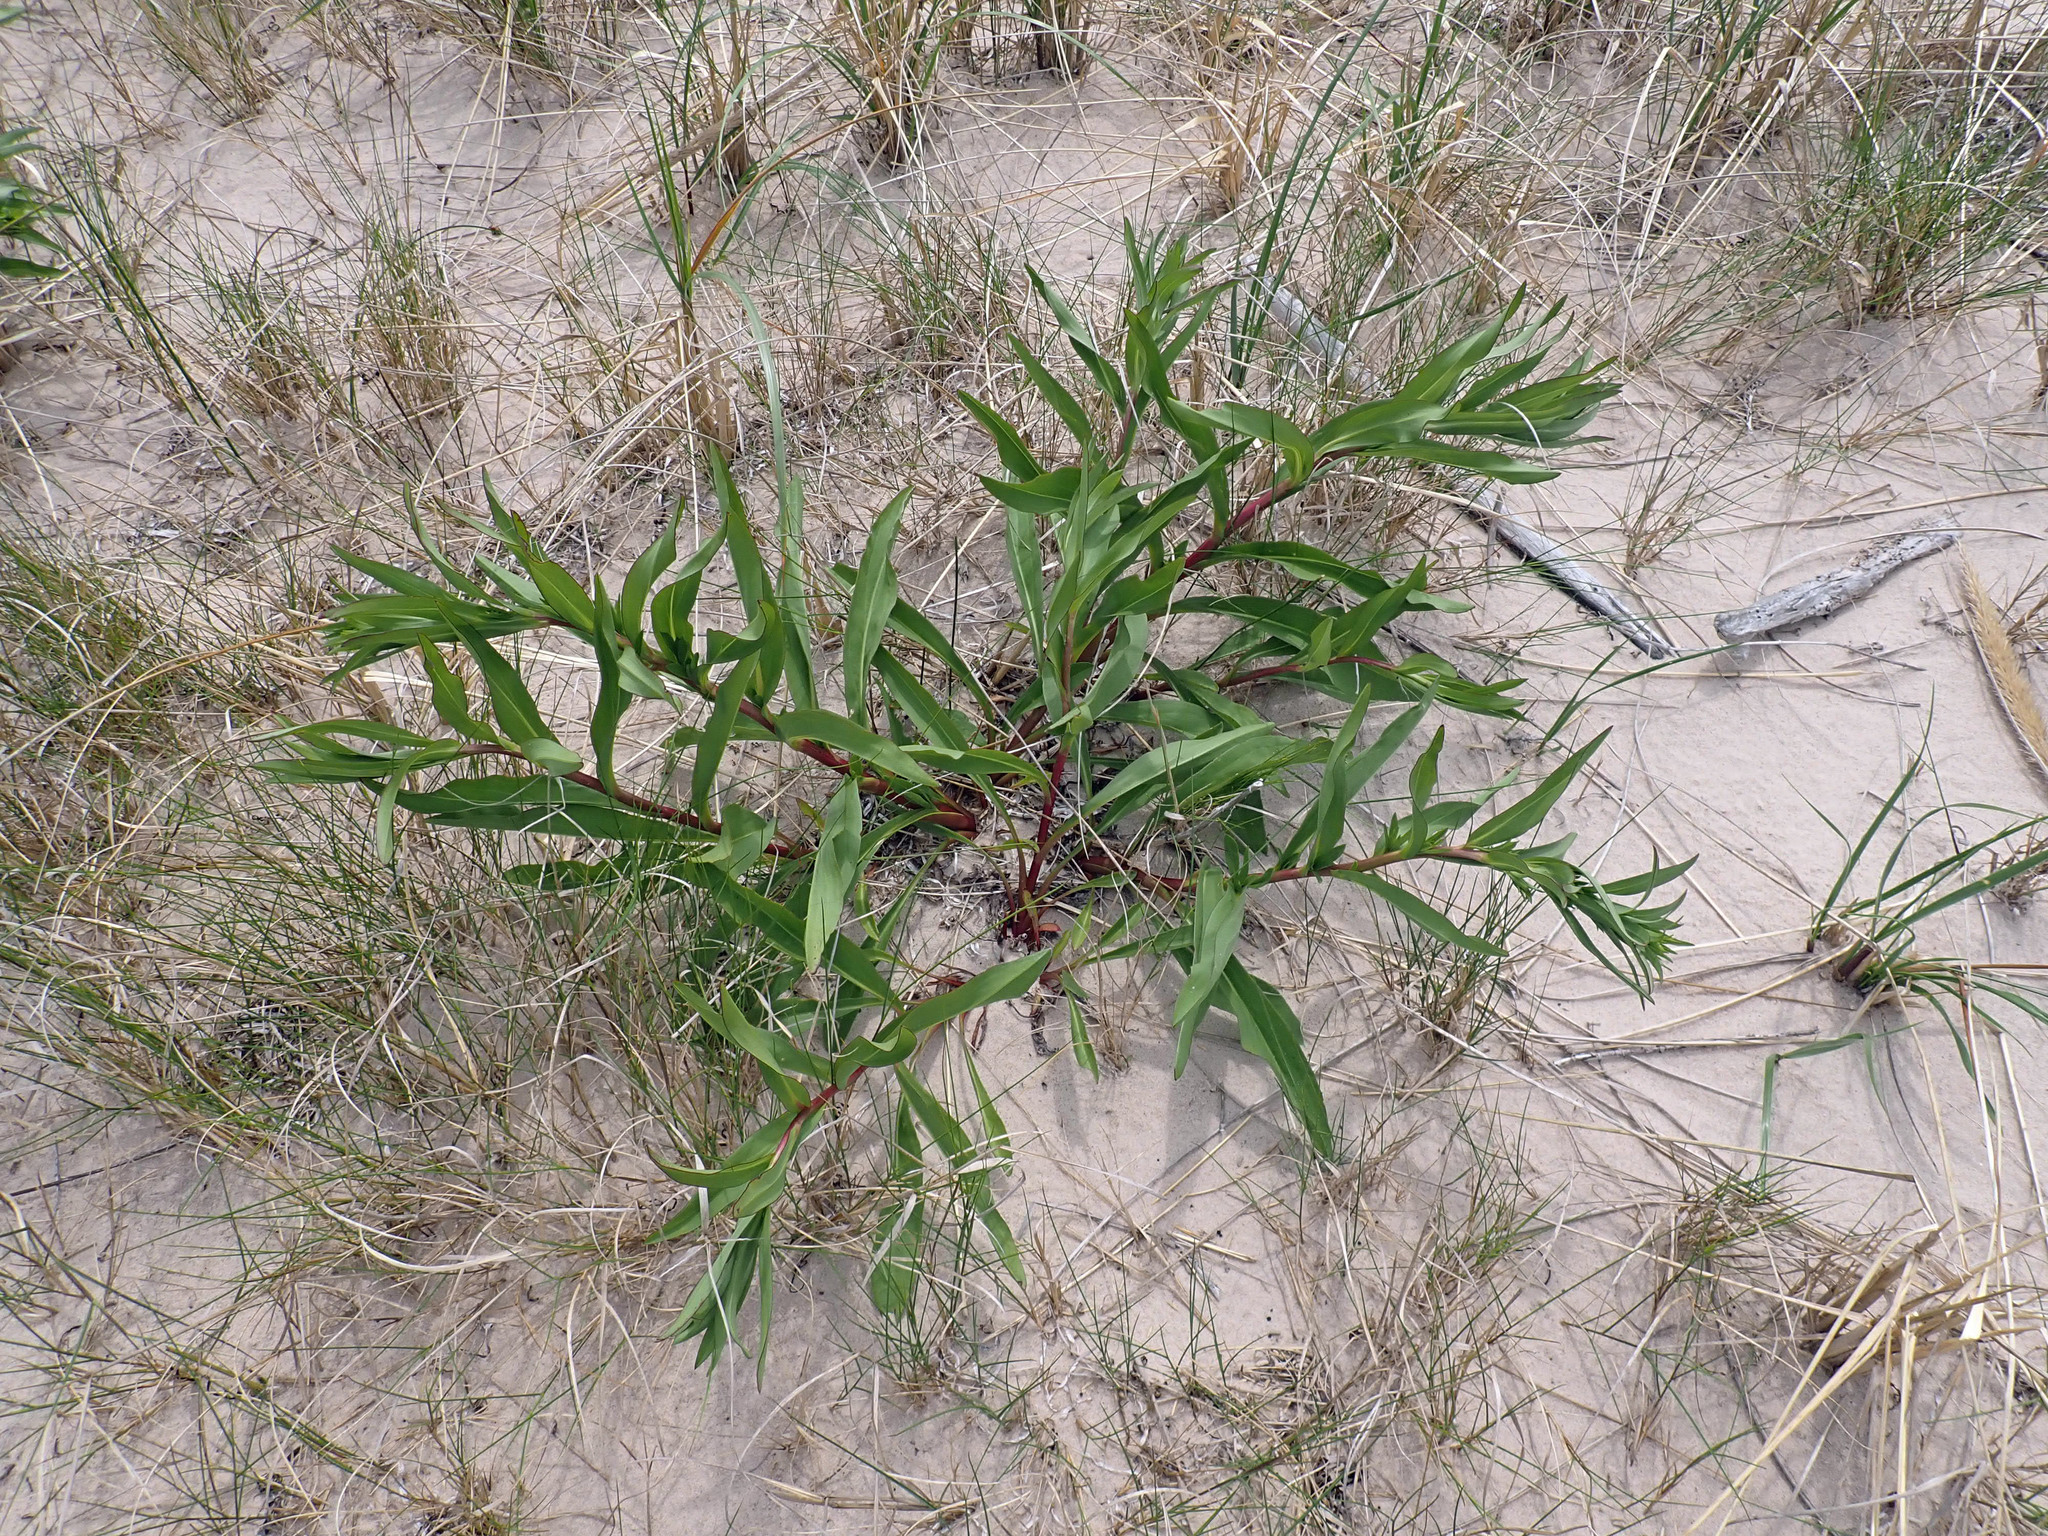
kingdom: Plantae
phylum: Tracheophyta
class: Magnoliopsida
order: Asterales
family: Asteraceae
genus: Solidago
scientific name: Solidago sempervirens
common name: Salt-marsh goldenrod
